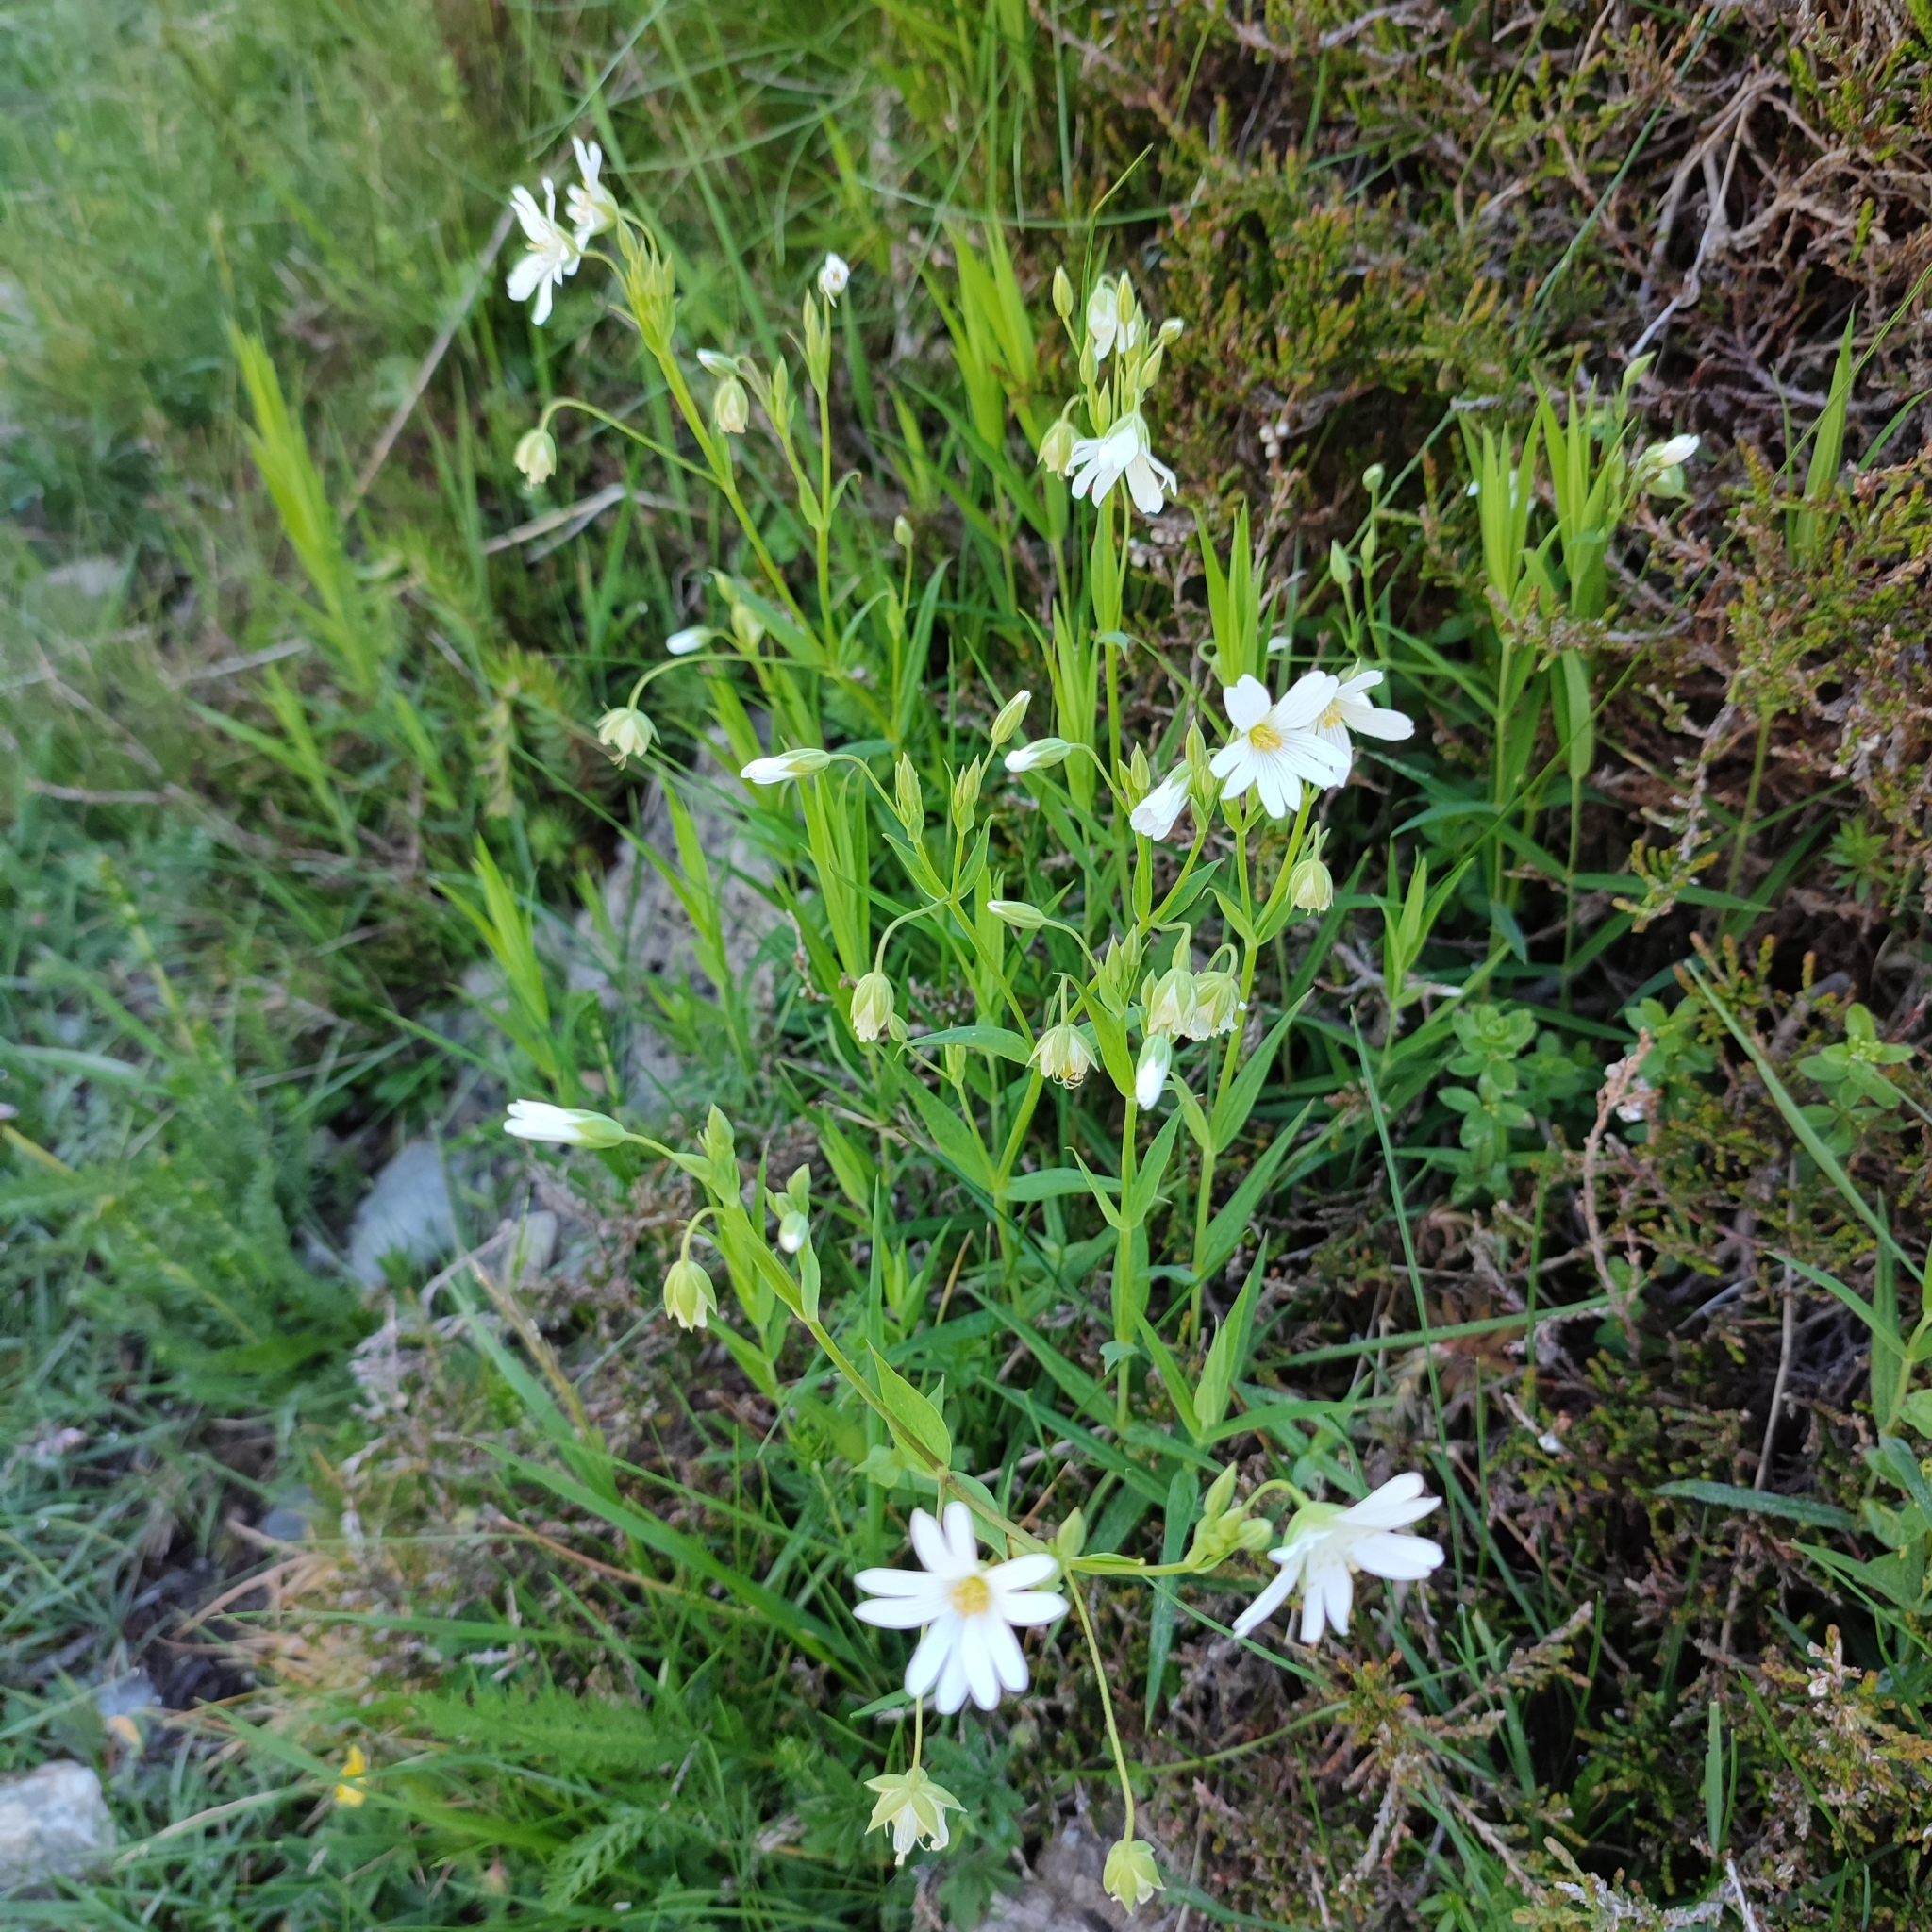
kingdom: Plantae
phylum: Tracheophyta
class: Magnoliopsida
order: Caryophyllales
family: Caryophyllaceae
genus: Rabelera
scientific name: Rabelera holostea
